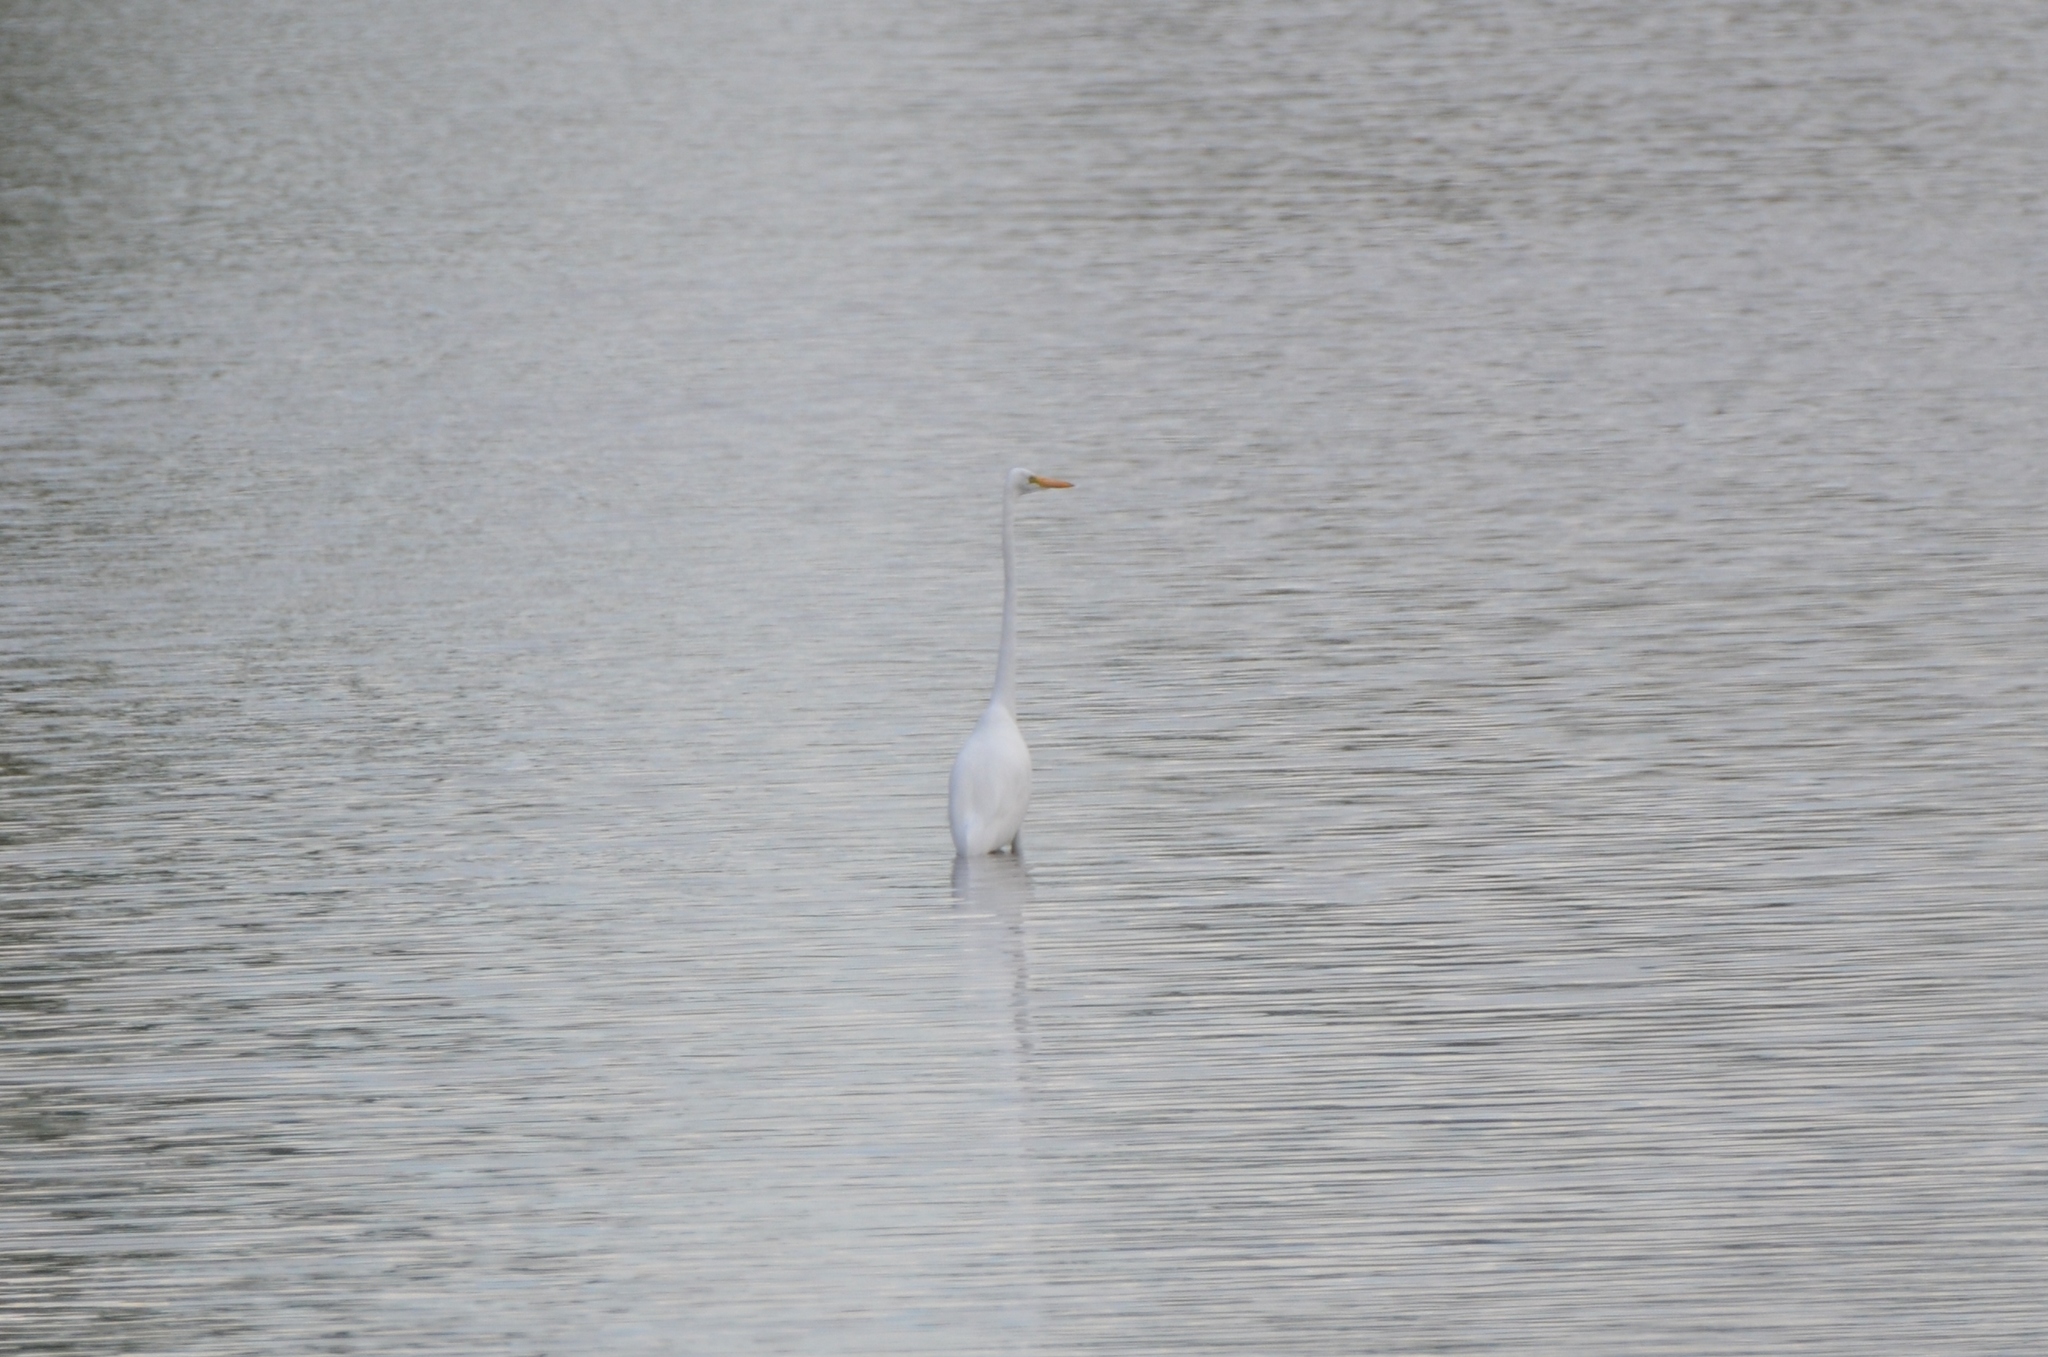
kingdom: Animalia
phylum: Chordata
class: Aves
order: Pelecaniformes
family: Ardeidae
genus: Ardea
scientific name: Ardea alba
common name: Great egret
